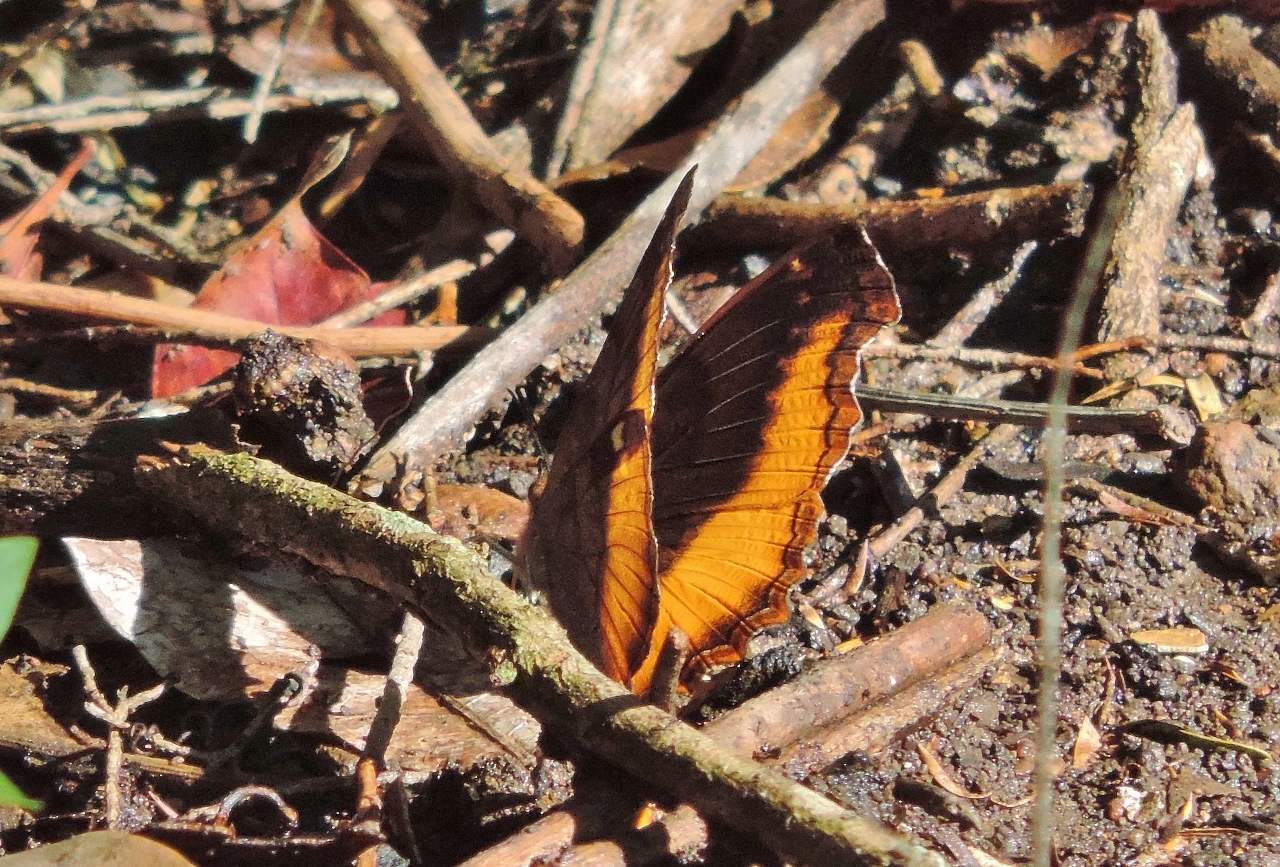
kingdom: Animalia
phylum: Arthropoda
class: Insecta
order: Lepidoptera
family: Nymphalidae
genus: Eurytela
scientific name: Eurytela dryope
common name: Golden piper
